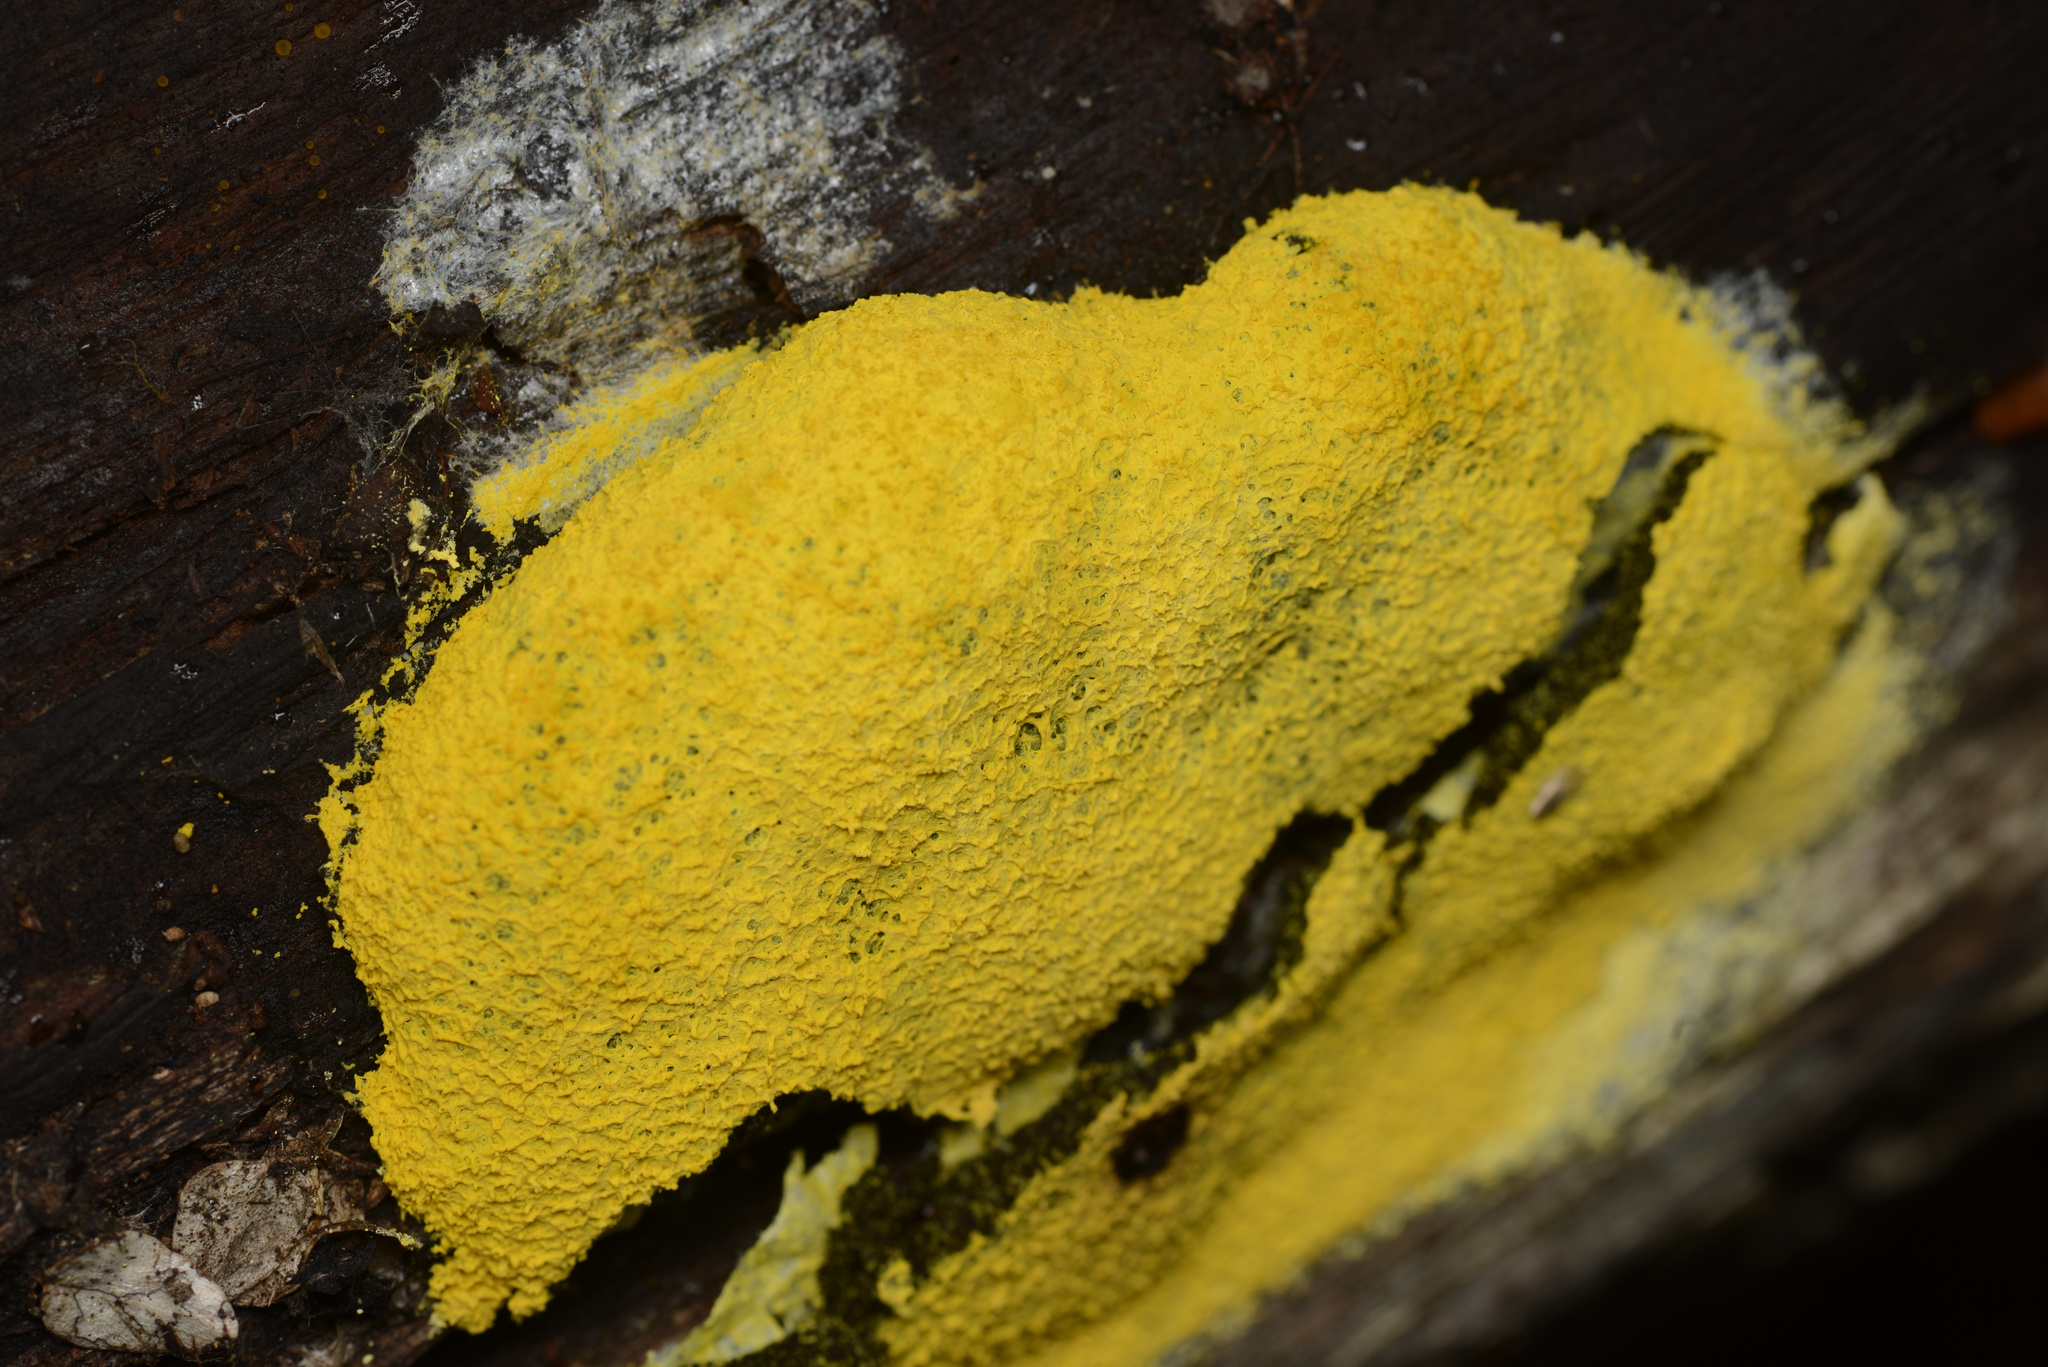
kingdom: Protozoa
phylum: Mycetozoa
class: Myxomycetes
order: Physarales
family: Physaraceae
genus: Fuligo
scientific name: Fuligo septica
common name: Dog vomit slime mold
